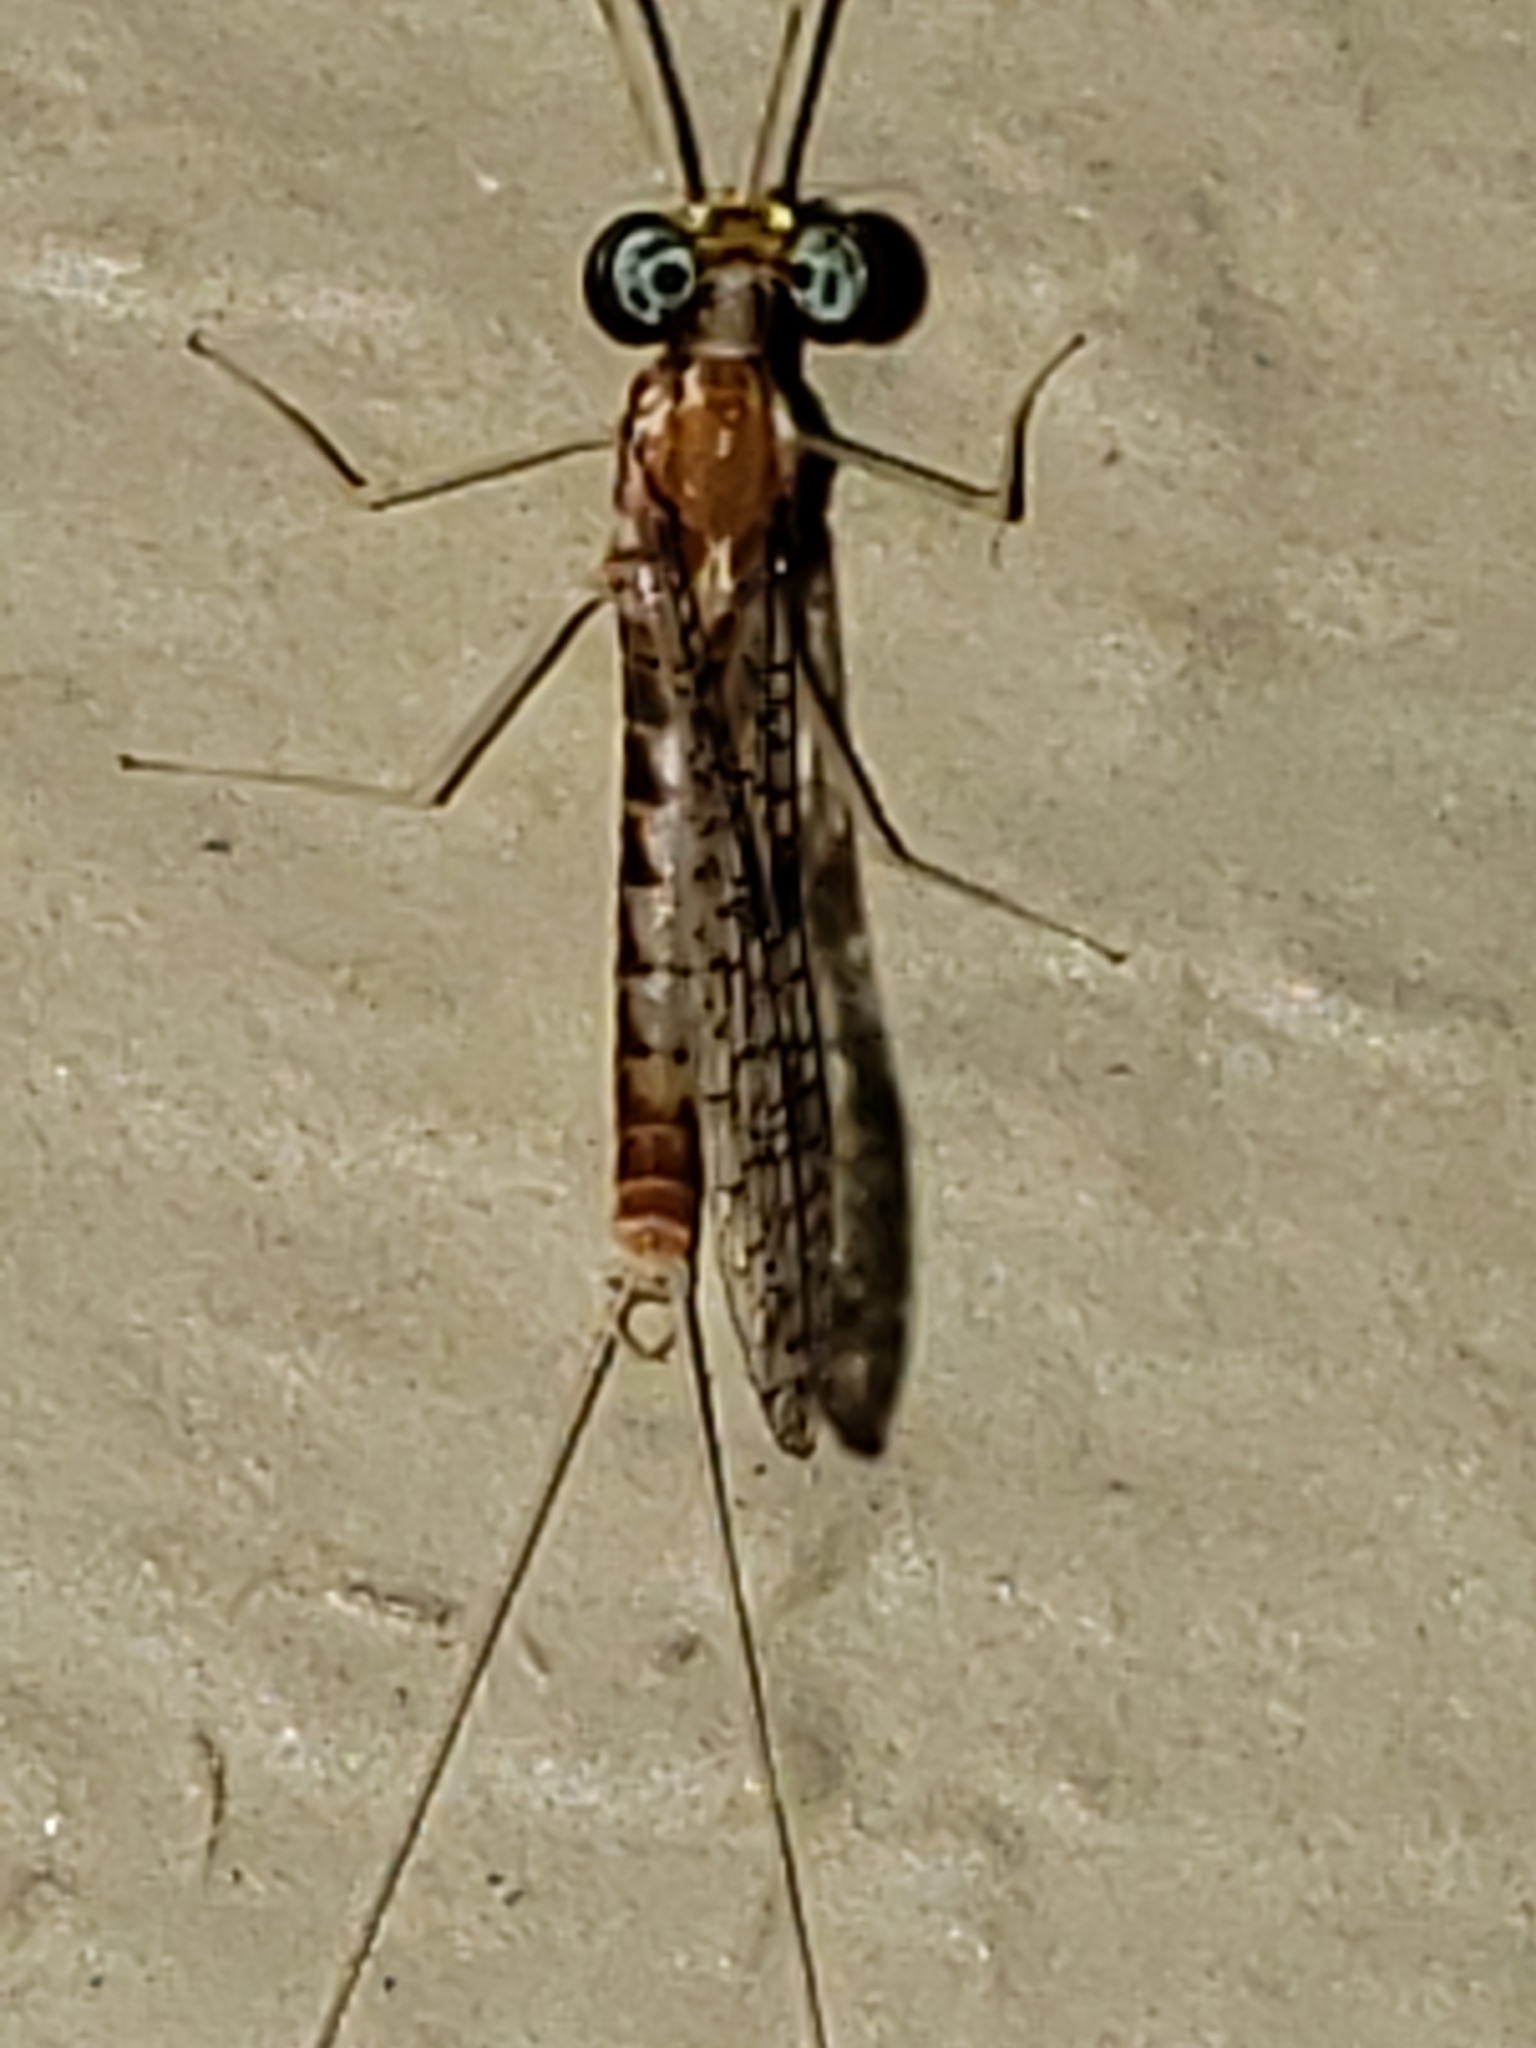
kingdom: Animalia
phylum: Arthropoda
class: Insecta
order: Ephemeroptera
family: Heptageniidae
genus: Leucrocuta
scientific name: Leucrocuta aphrodite
